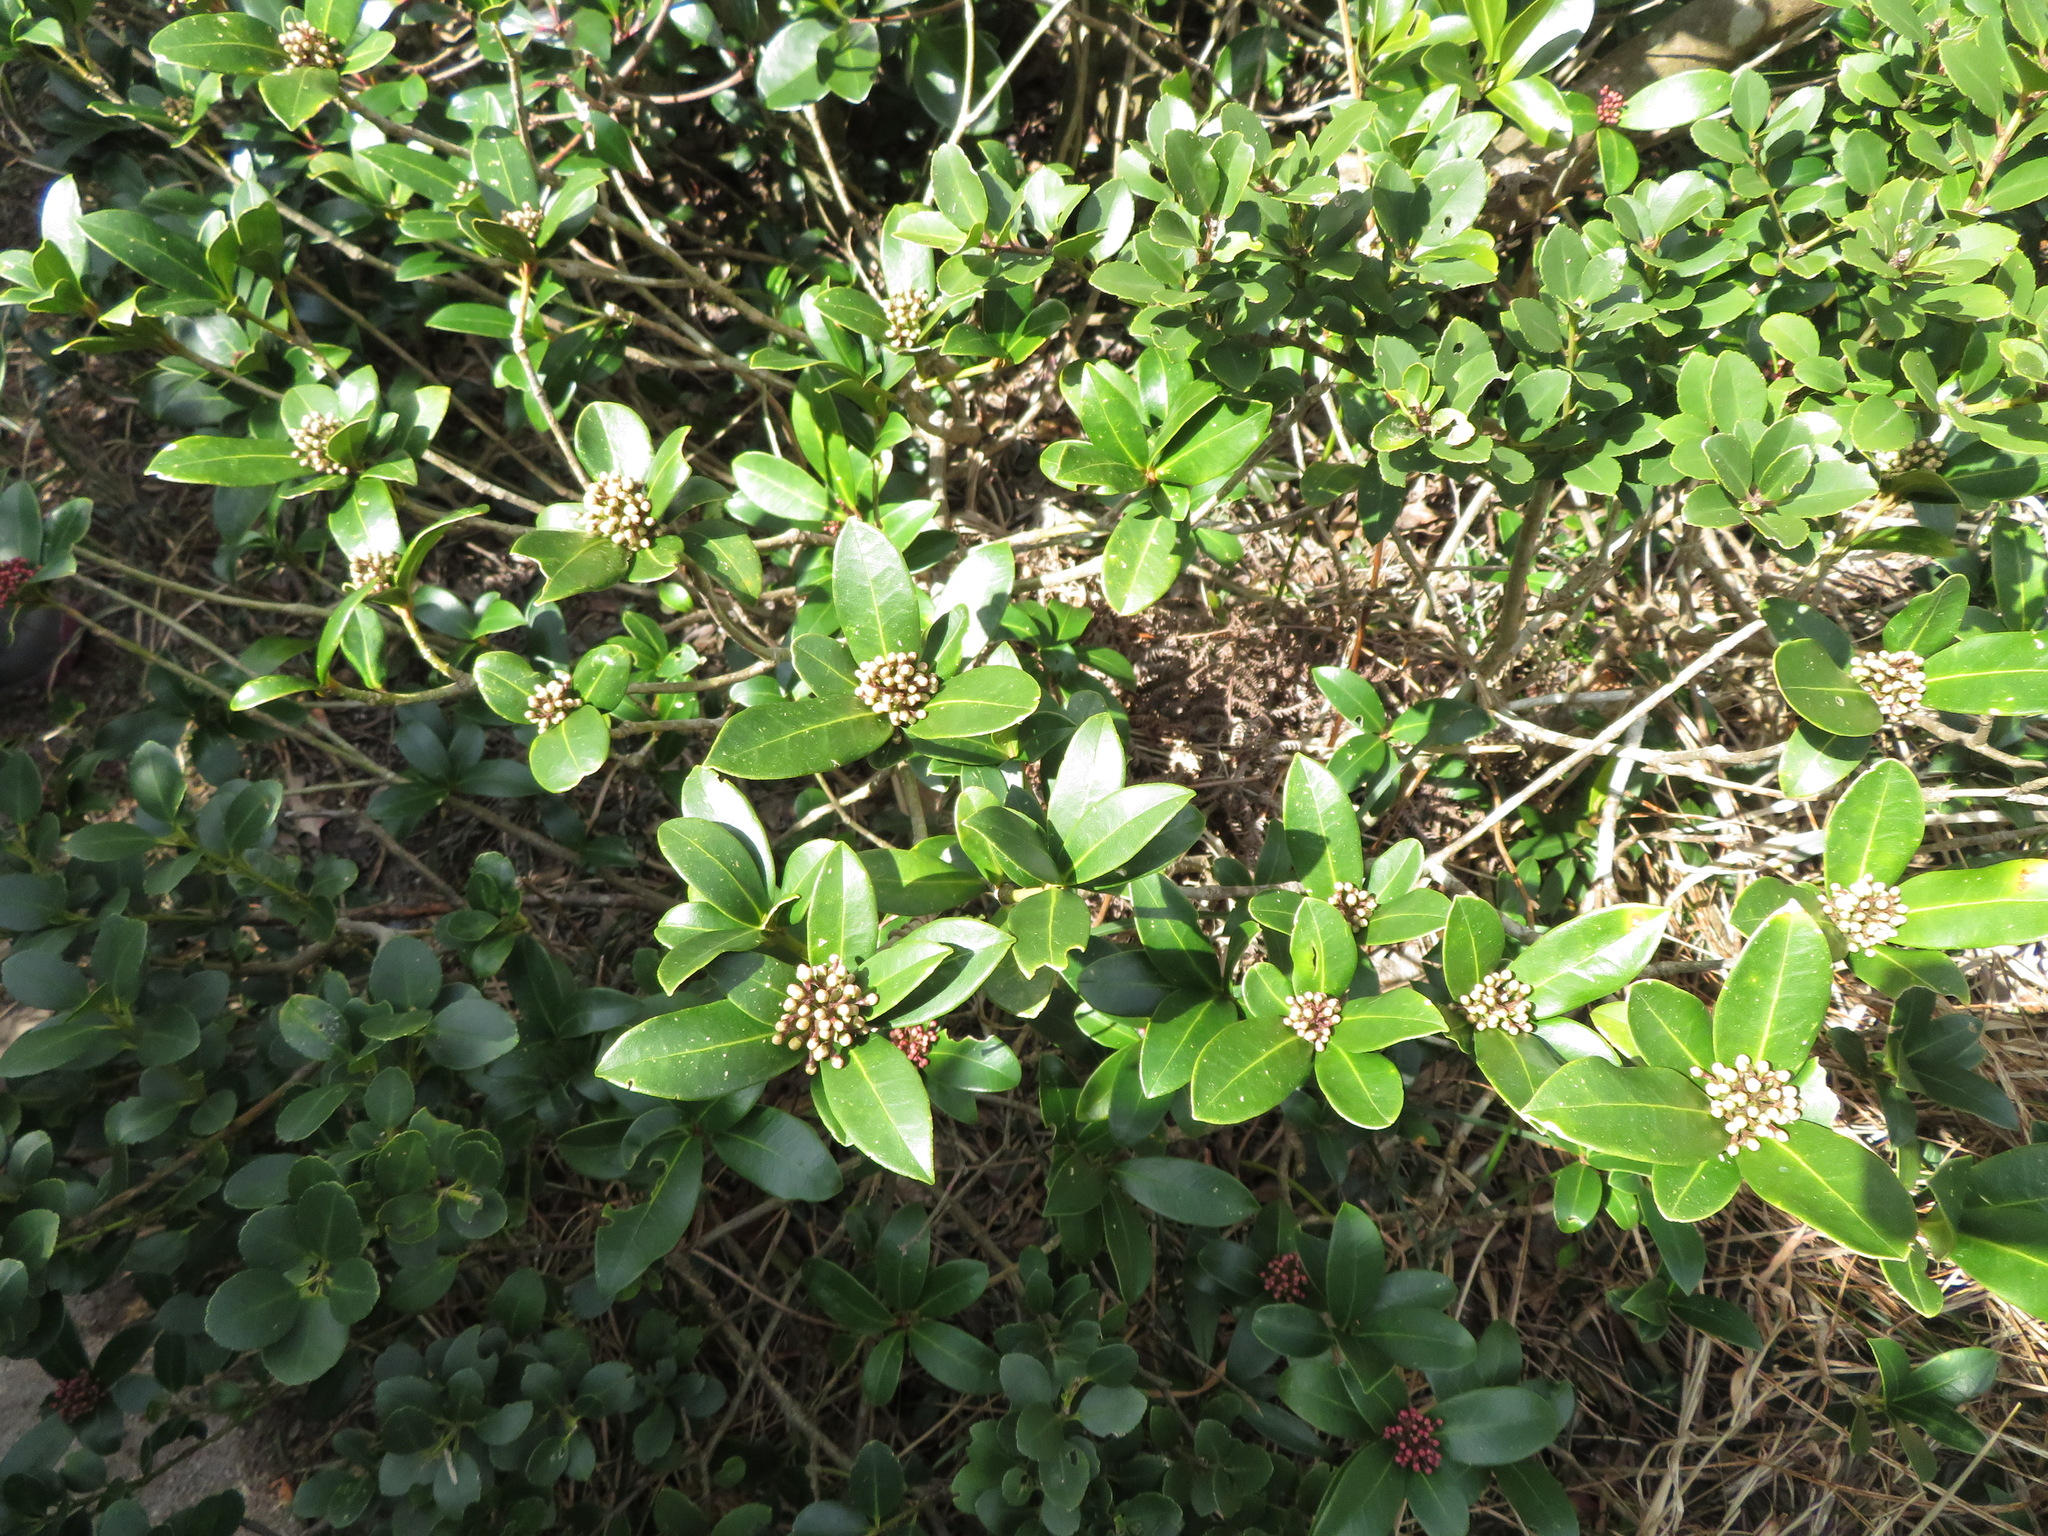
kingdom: Plantae
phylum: Tracheophyta
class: Magnoliopsida
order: Sapindales
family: Rutaceae
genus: Skimmia
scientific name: Skimmia japonica
